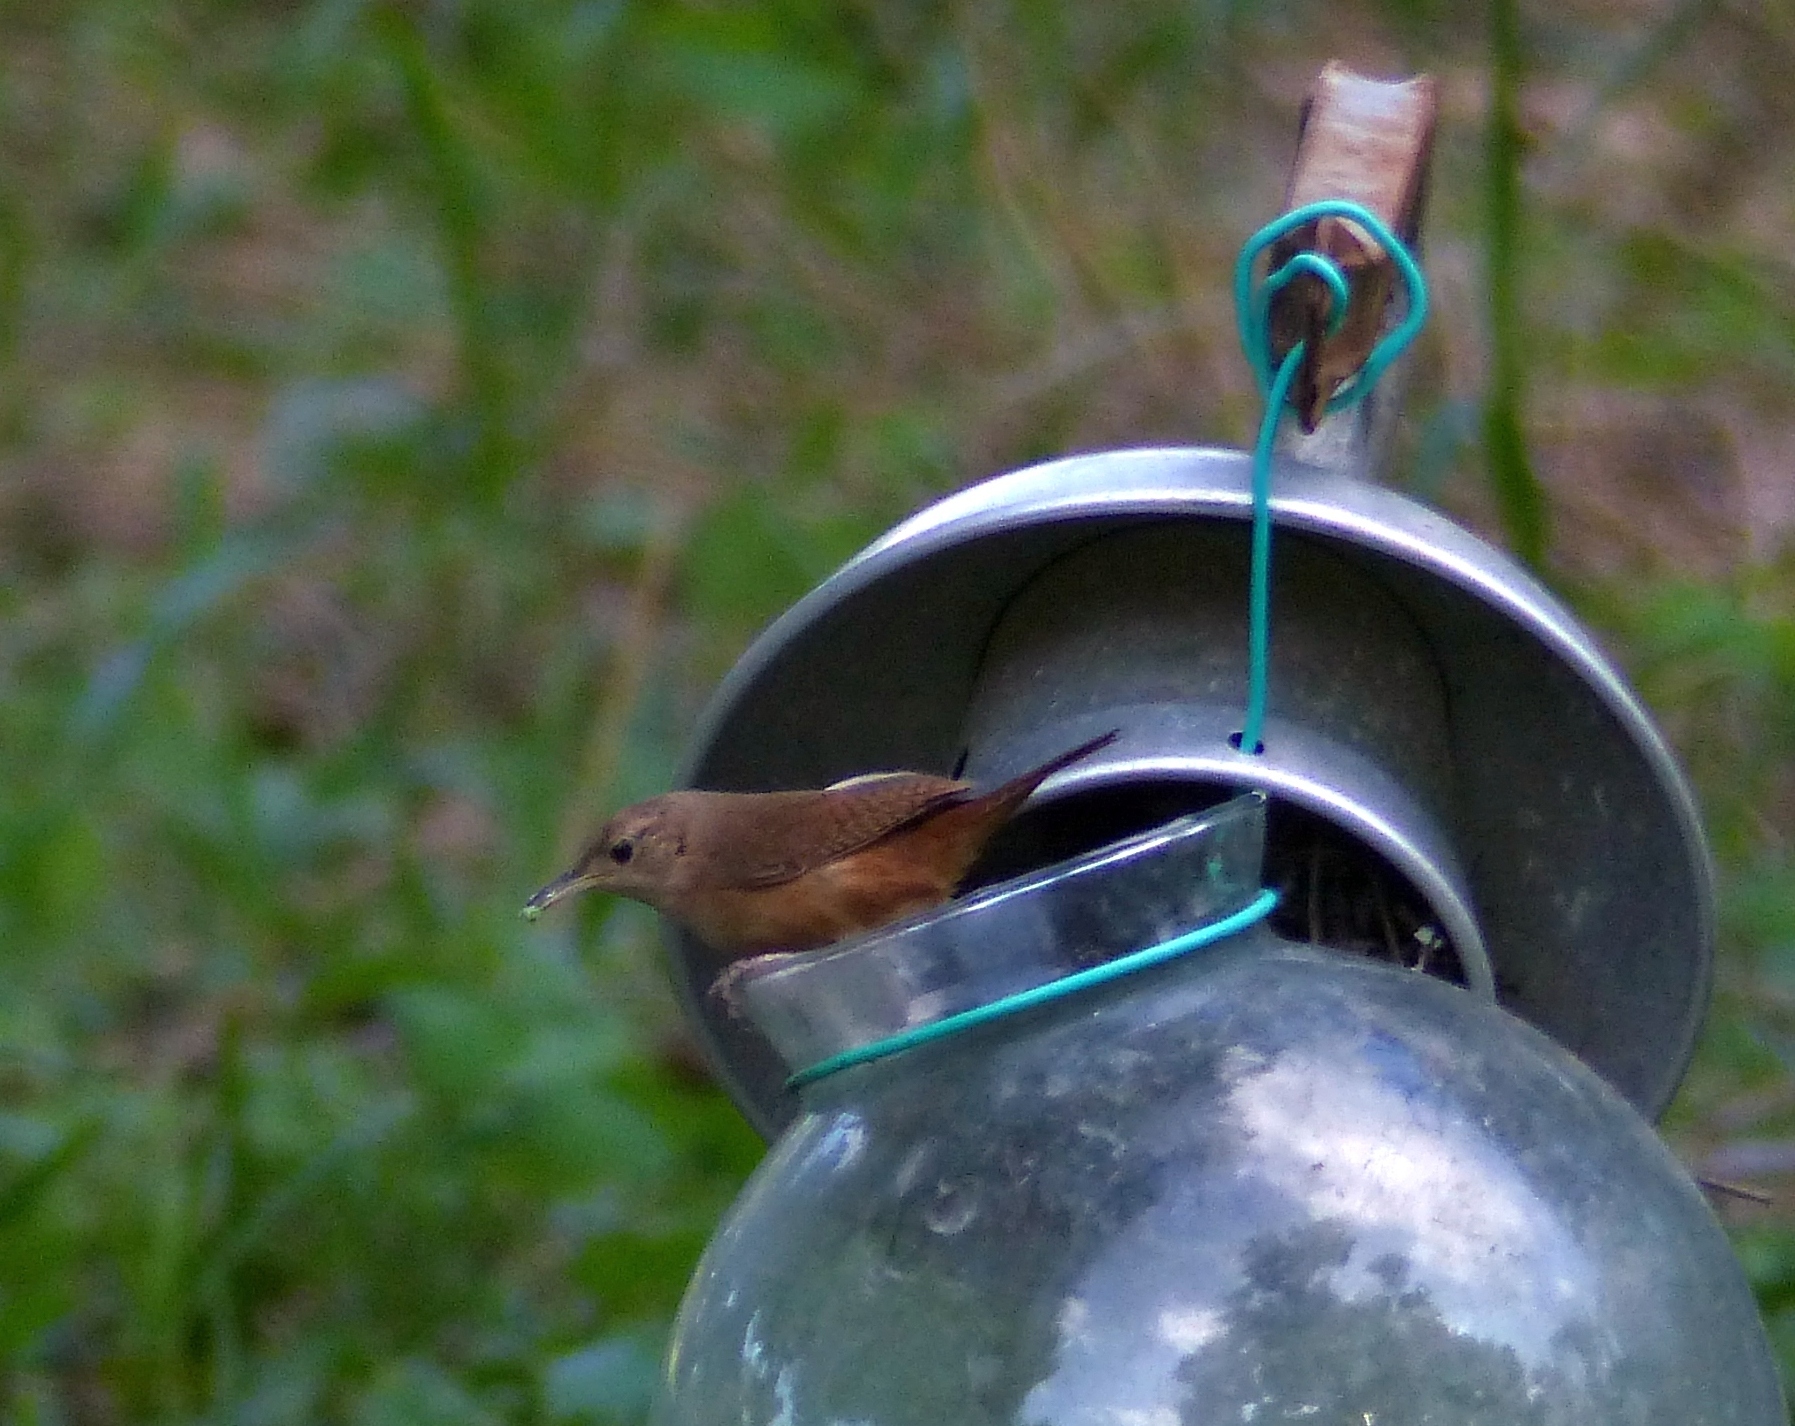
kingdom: Animalia
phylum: Chordata
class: Aves
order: Passeriformes
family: Troglodytidae
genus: Troglodytes
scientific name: Troglodytes aedon
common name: House wren
